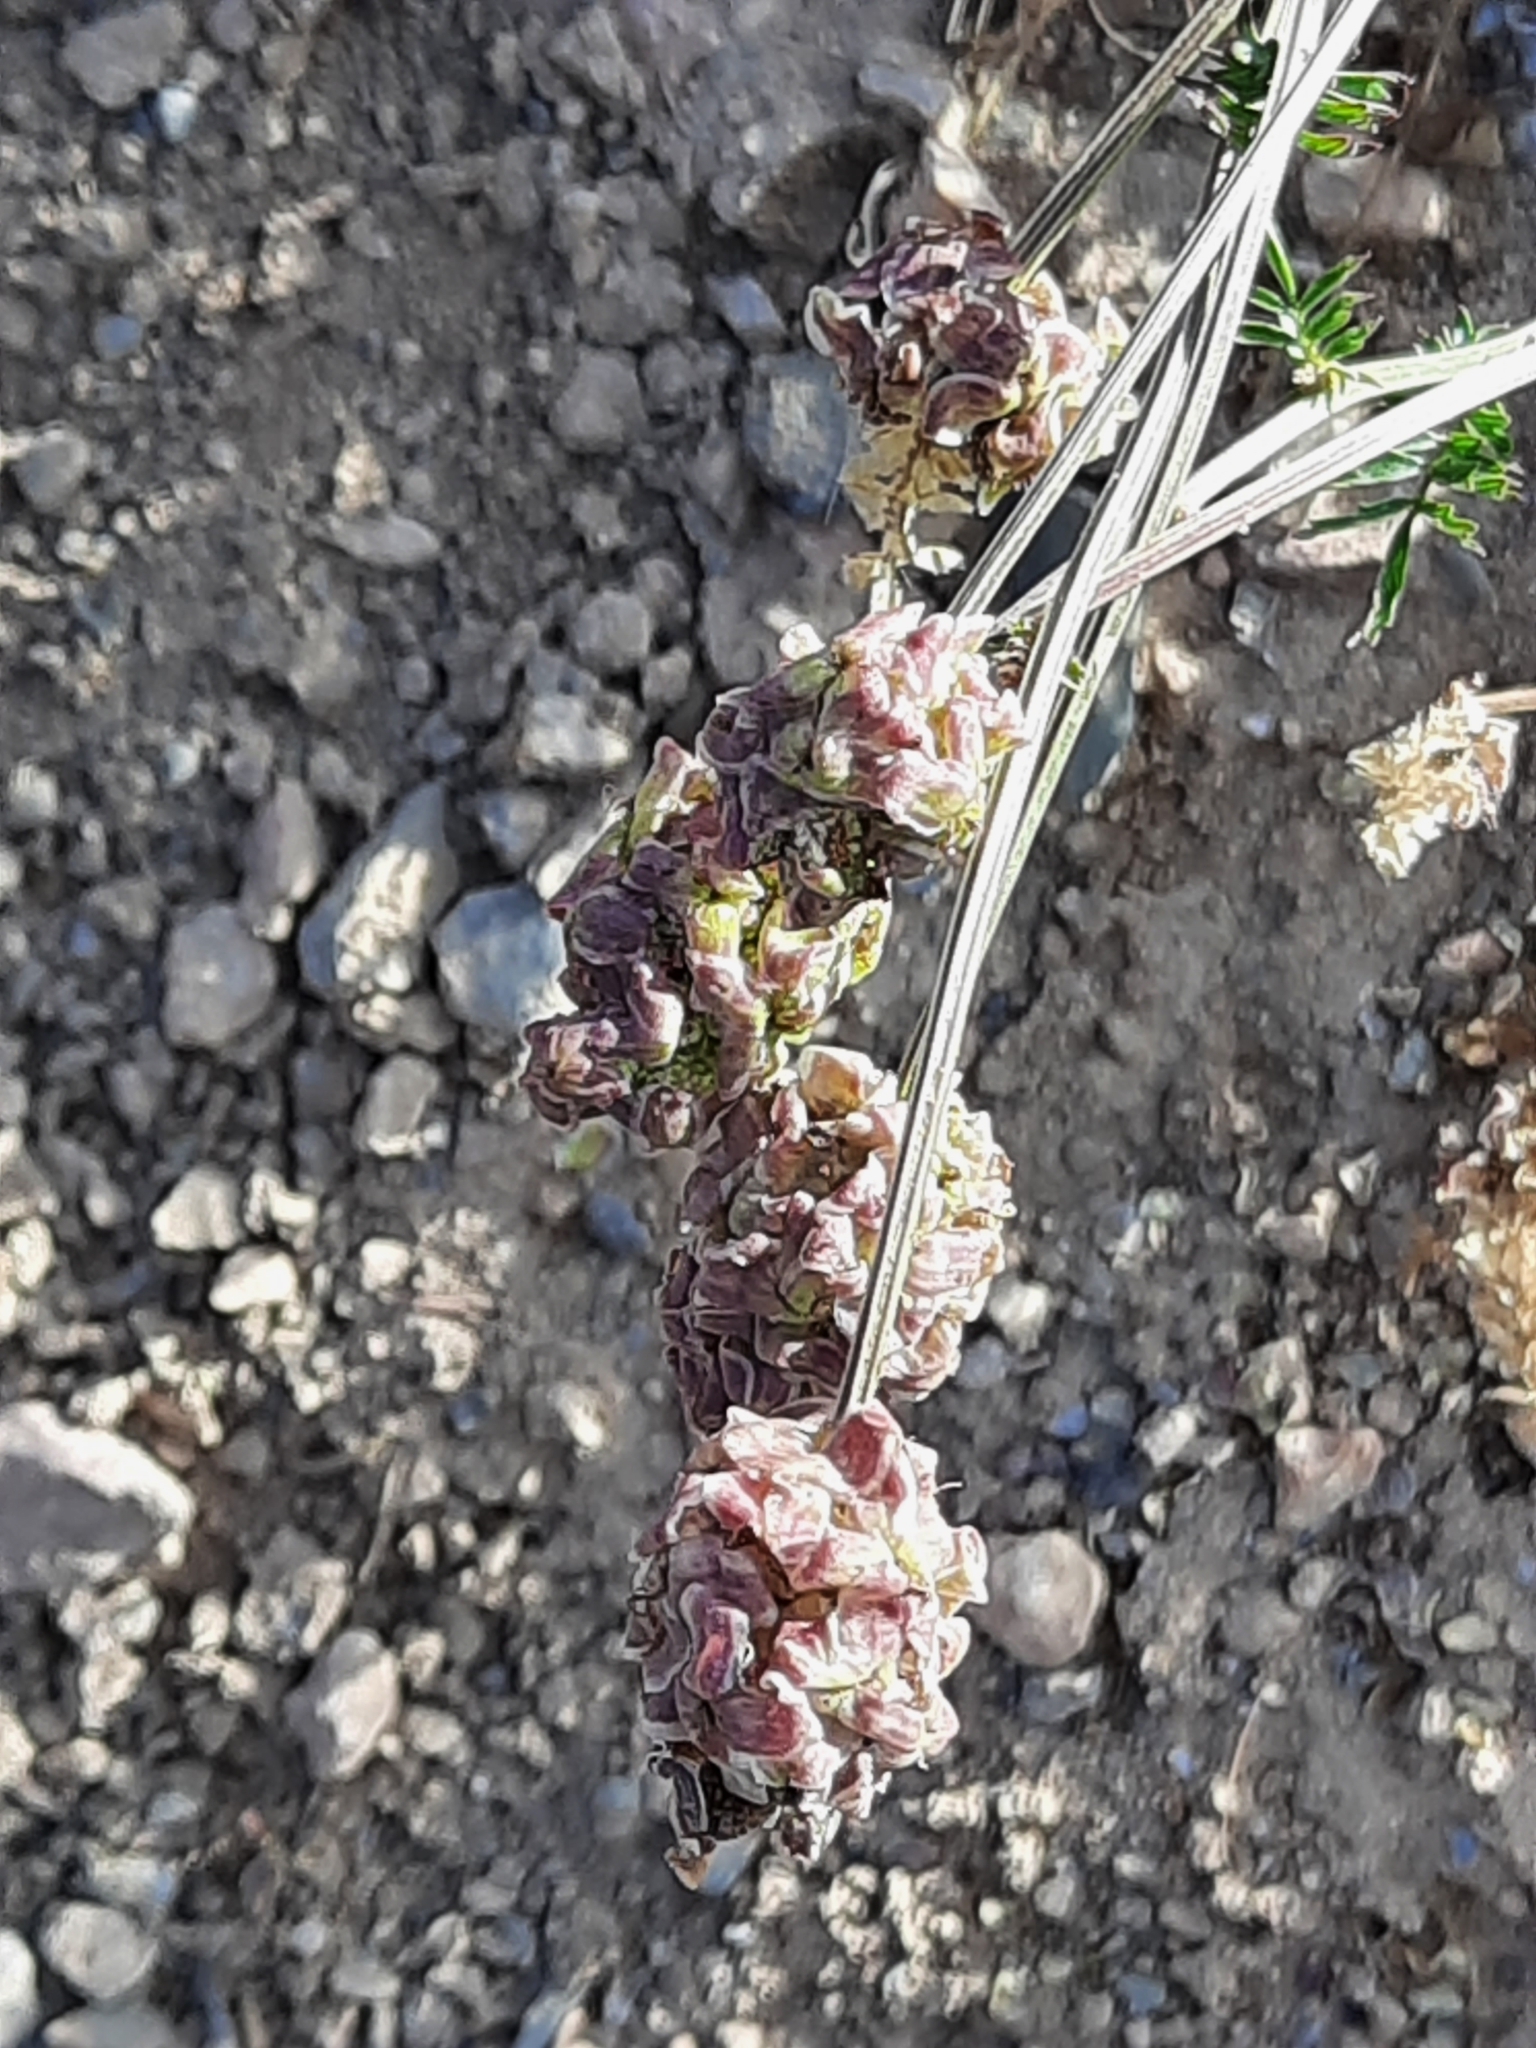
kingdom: Plantae
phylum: Tracheophyta
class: Magnoliopsida
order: Rosales
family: Rosaceae
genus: Poterium
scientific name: Poterium
